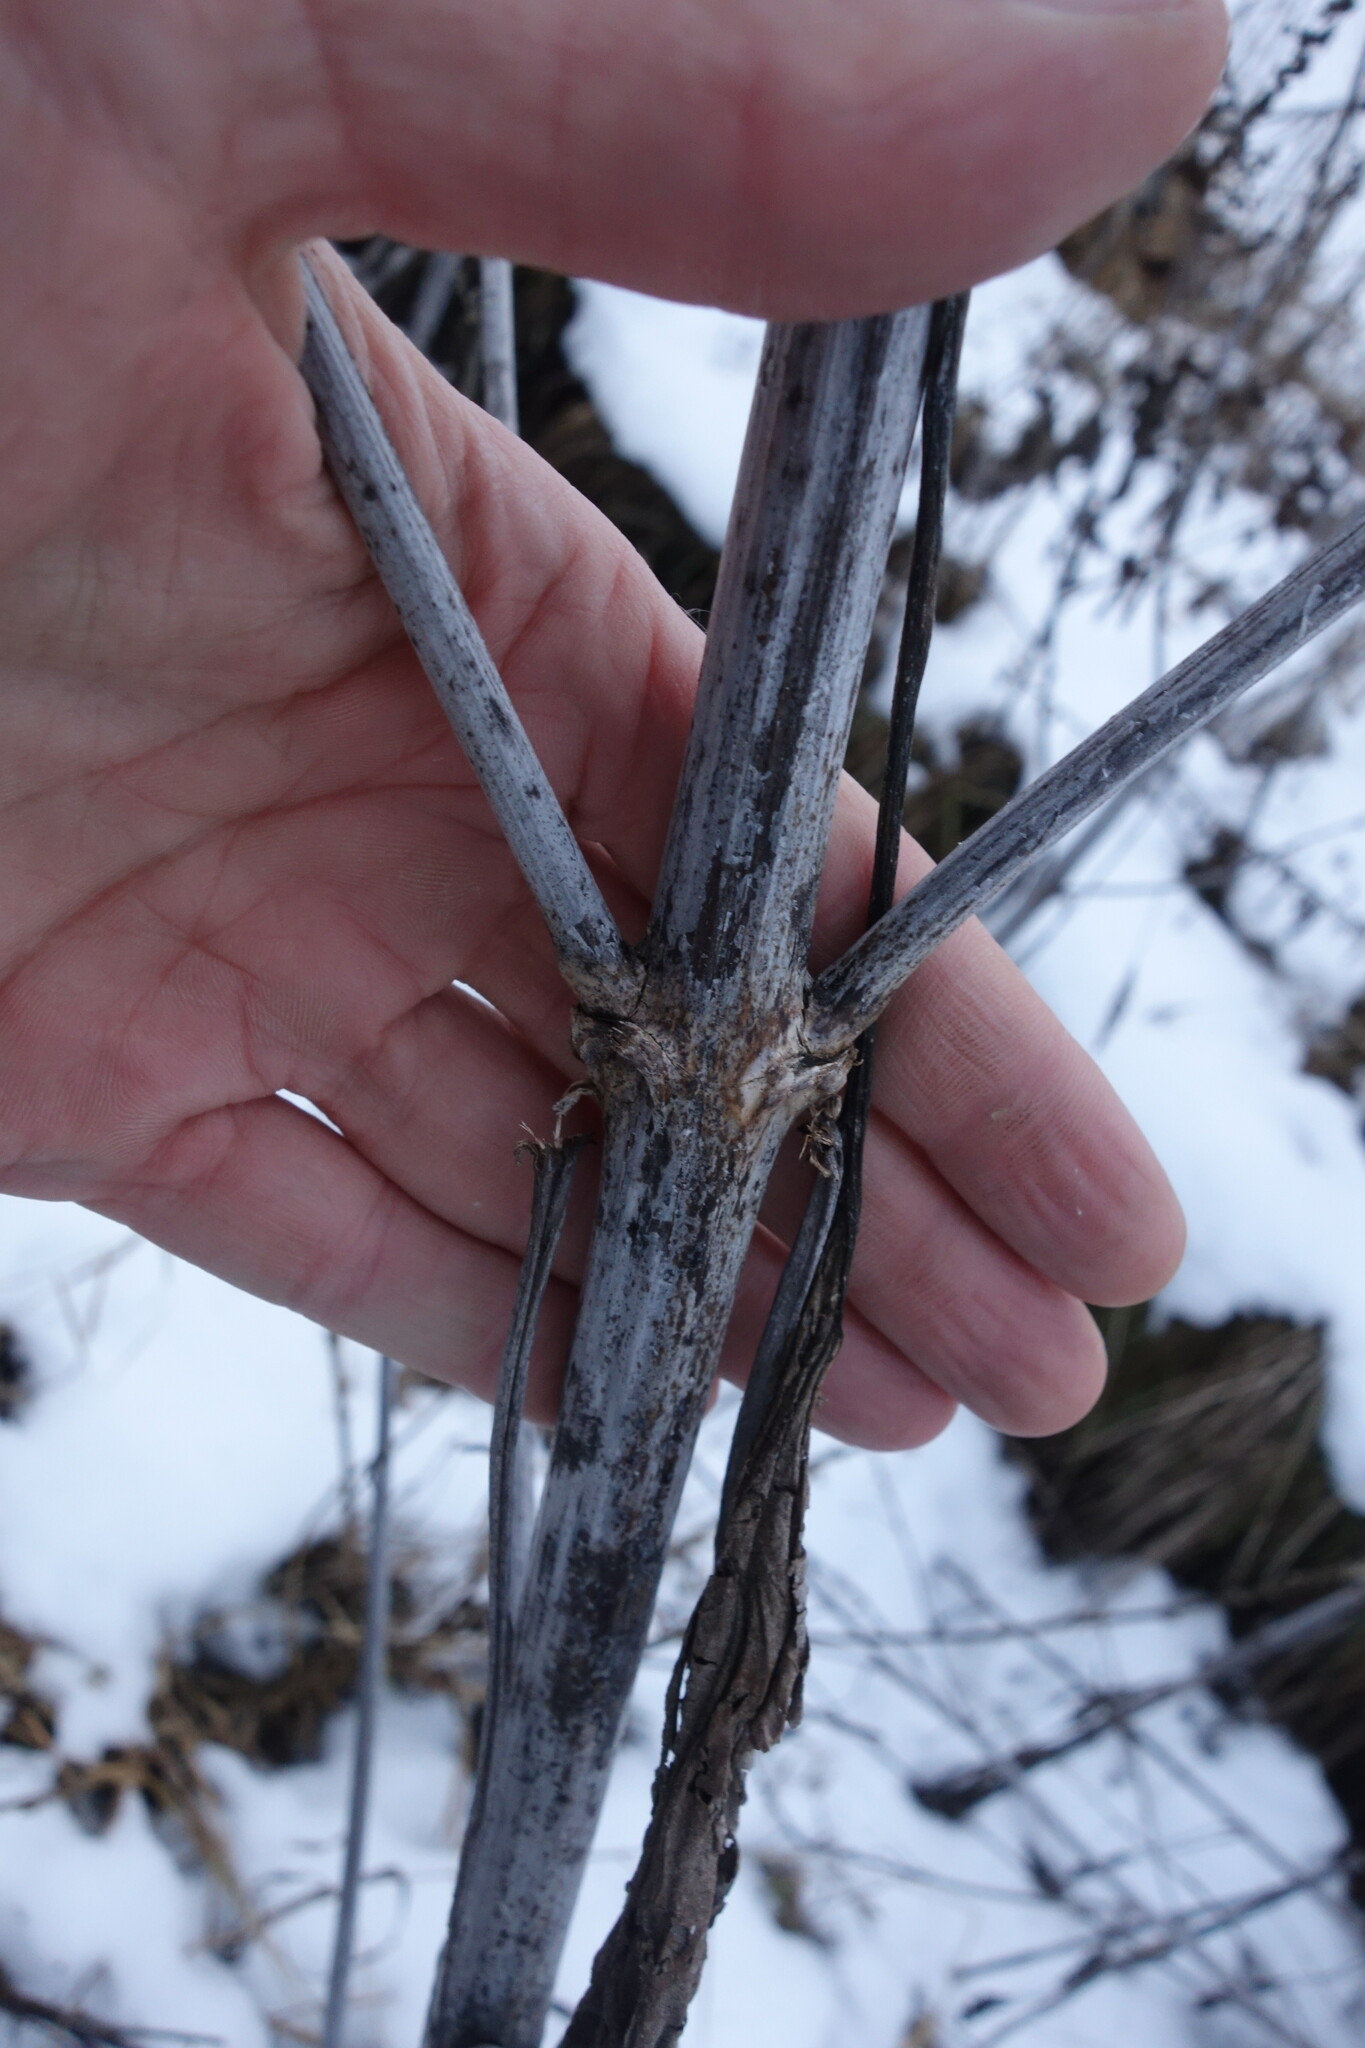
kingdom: Plantae
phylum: Tracheophyta
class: Magnoliopsida
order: Asterales
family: Asteraceae
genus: Cyclachaena
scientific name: Cyclachaena xanthiifolia
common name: Giant sumpweed
